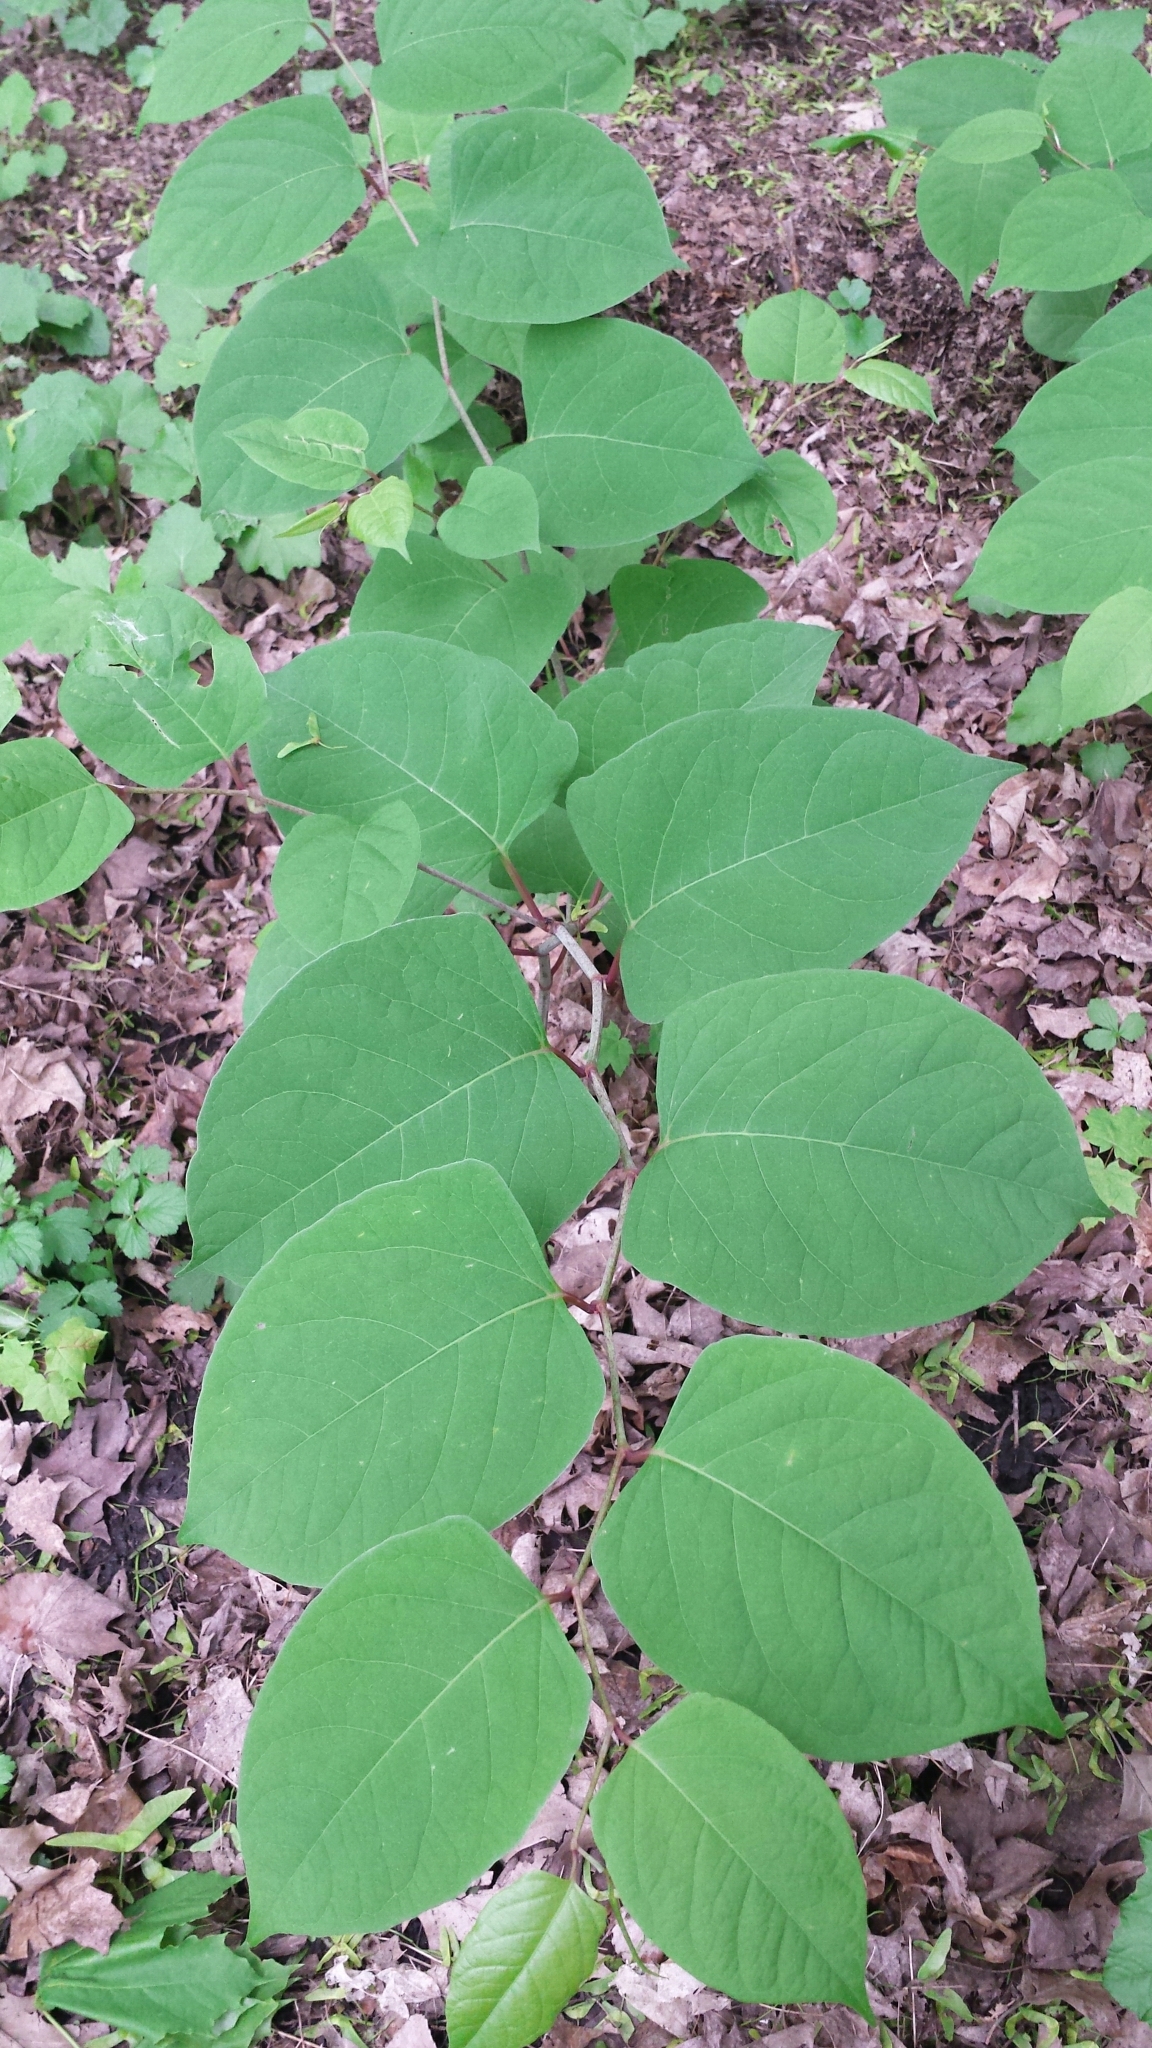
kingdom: Plantae
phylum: Tracheophyta
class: Magnoliopsida
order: Caryophyllales
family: Polygonaceae
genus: Reynoutria
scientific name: Reynoutria japonica
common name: Japanese knotweed
